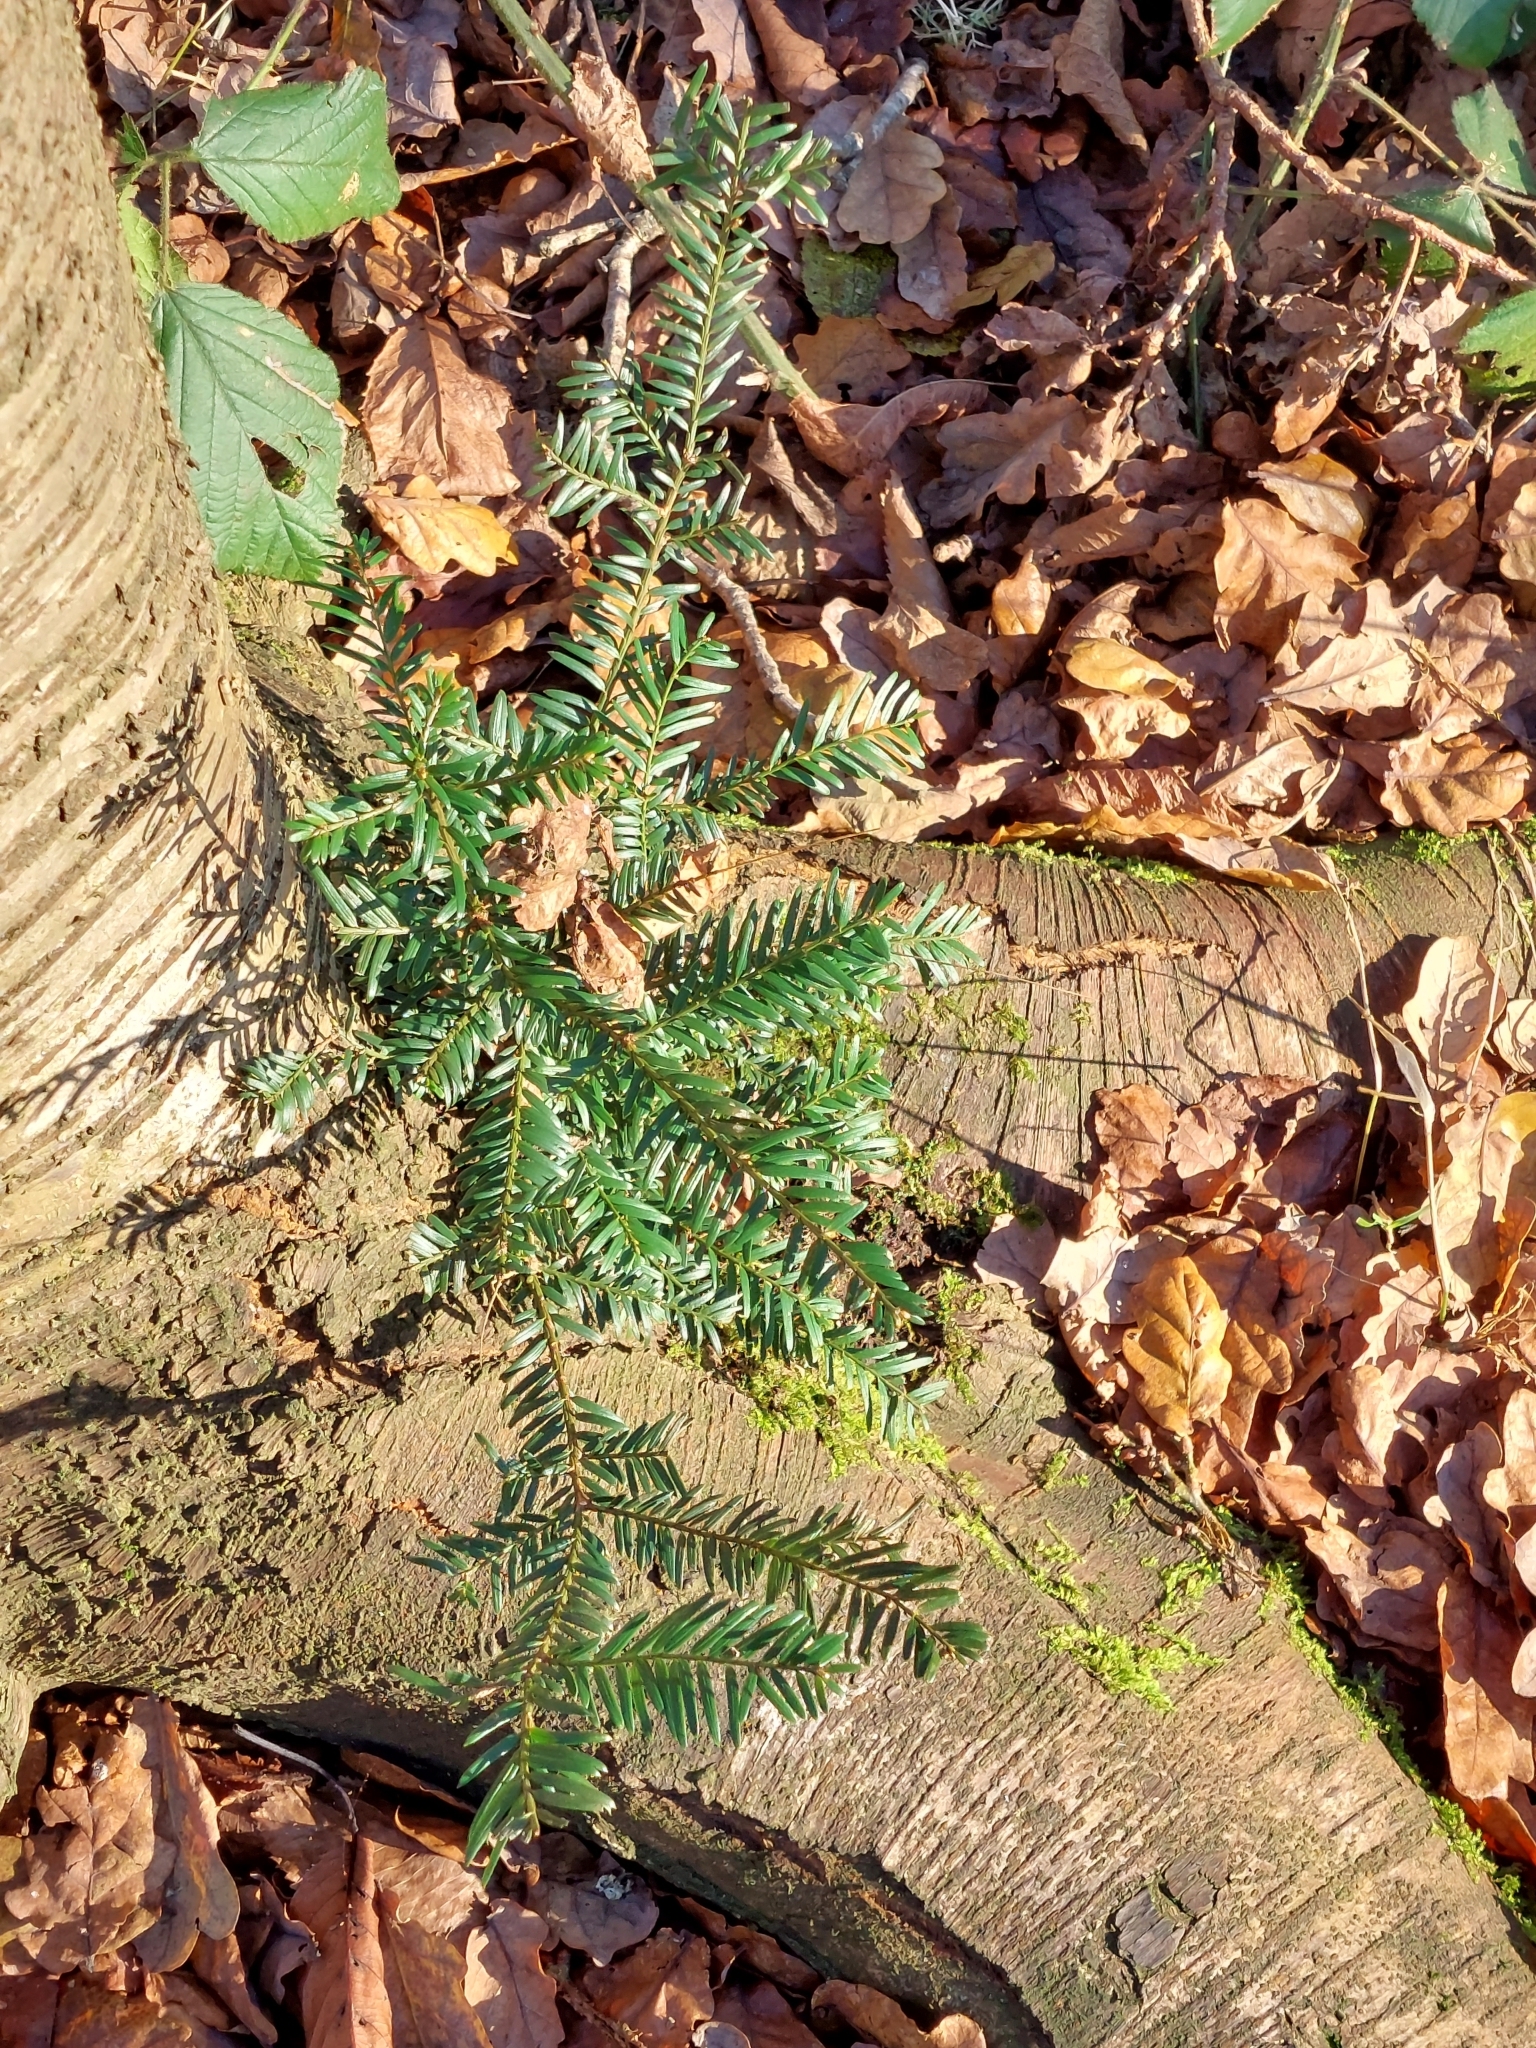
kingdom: Plantae
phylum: Tracheophyta
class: Pinopsida
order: Pinales
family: Taxaceae
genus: Taxus
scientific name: Taxus baccata
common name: Yew
